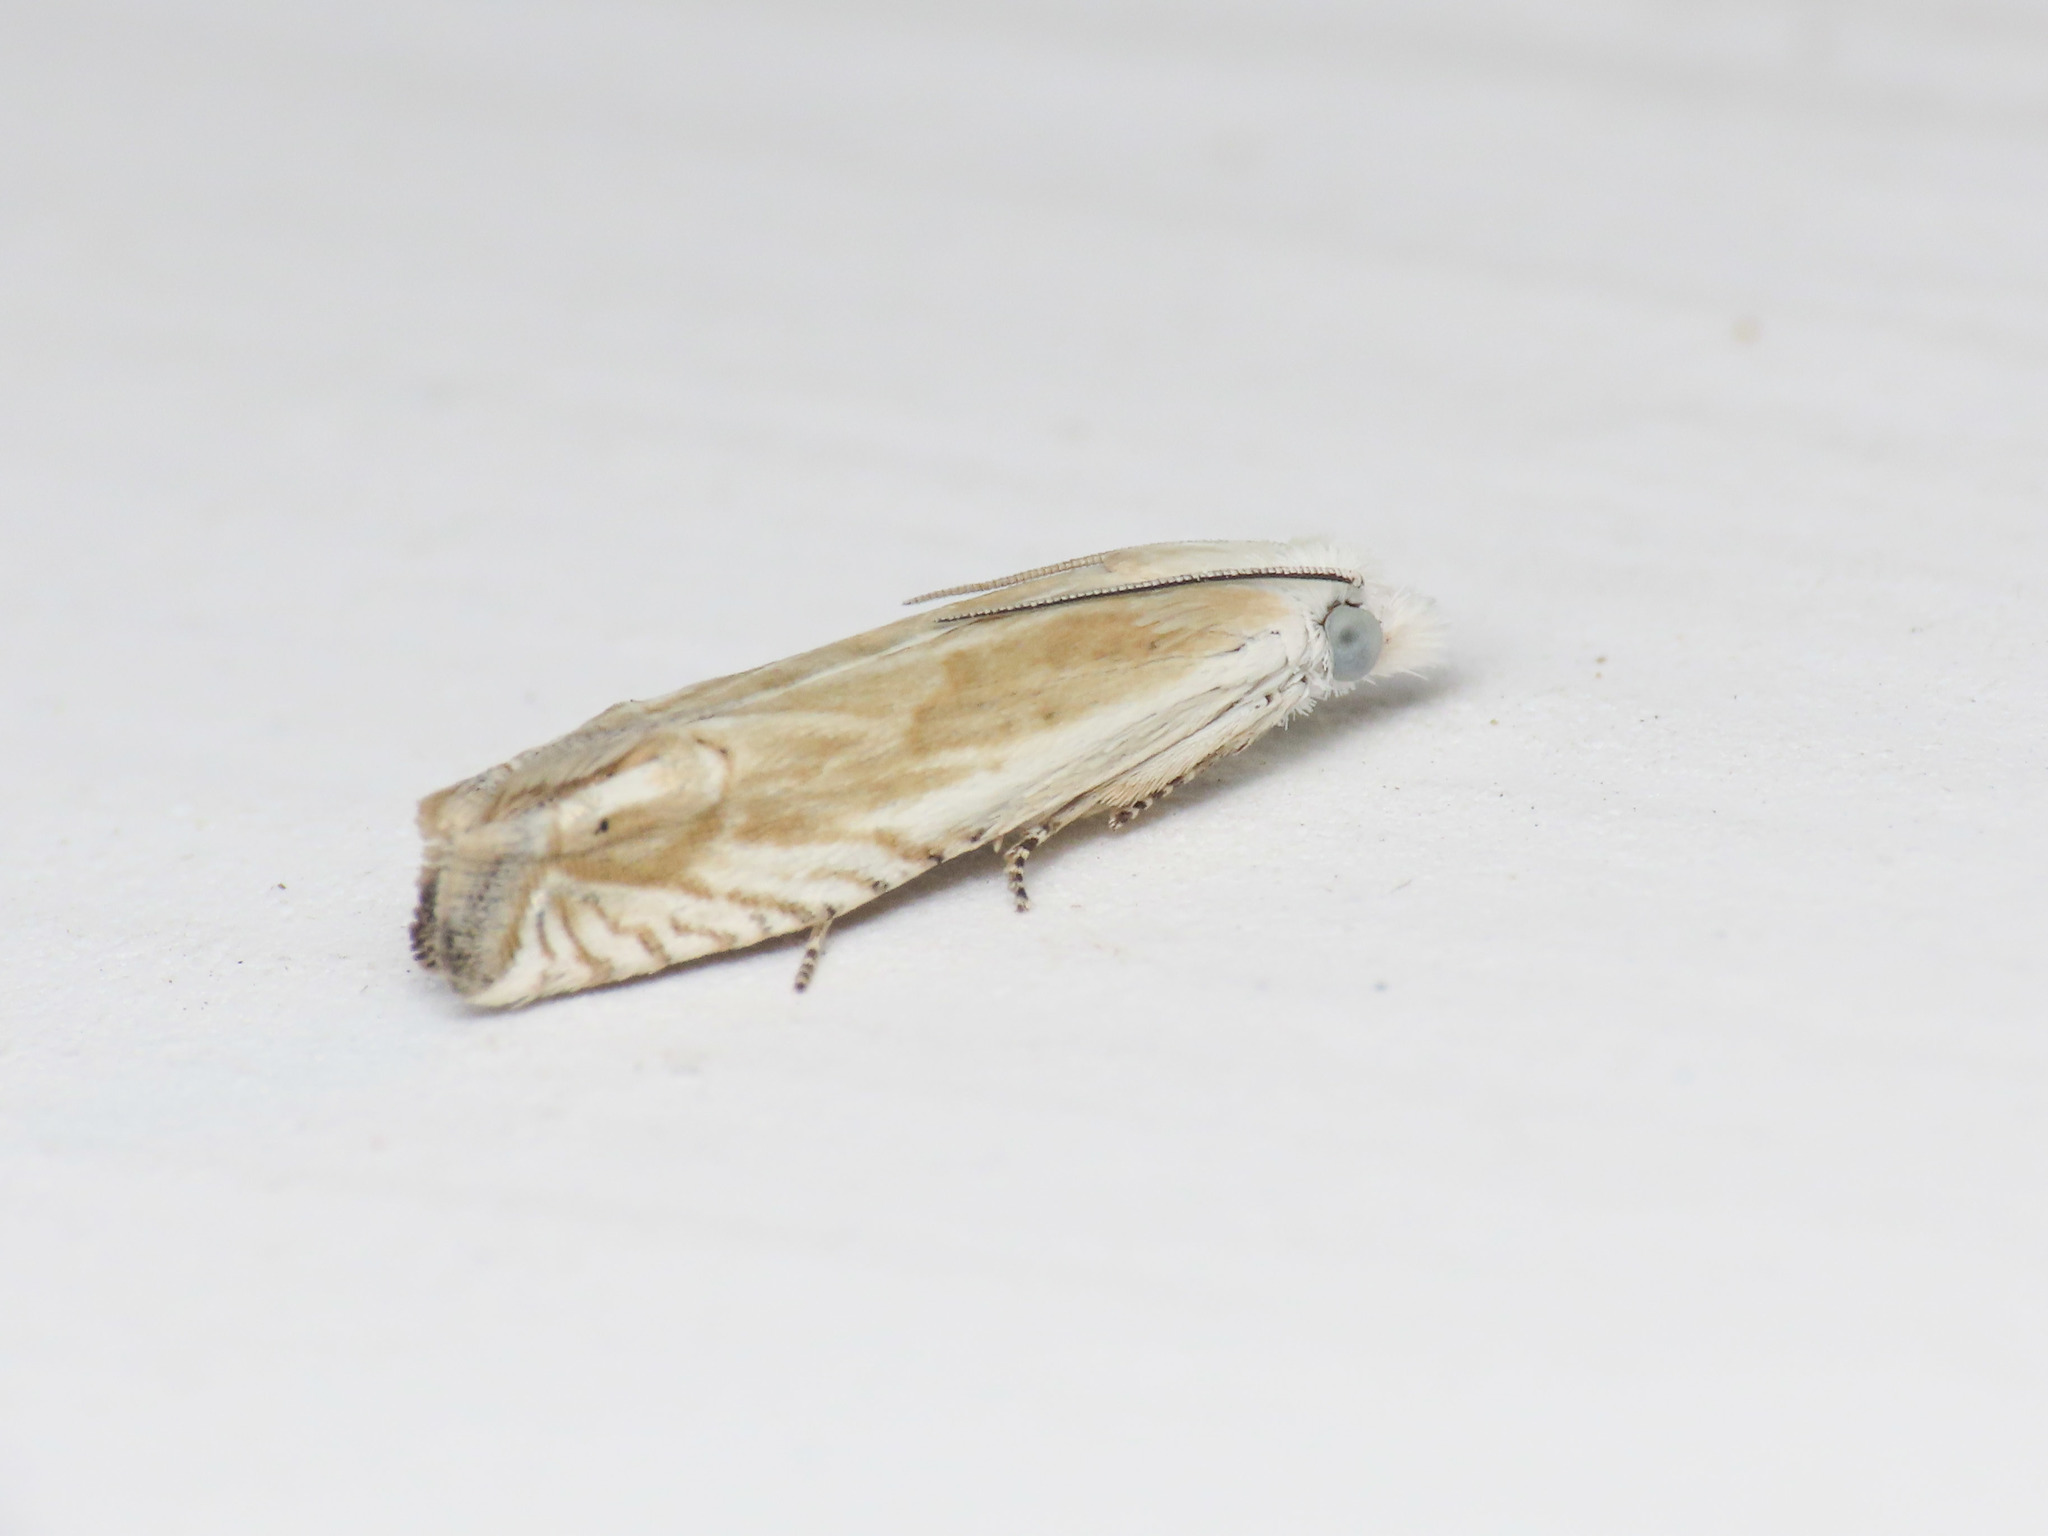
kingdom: Animalia
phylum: Arthropoda
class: Insecta
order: Lepidoptera
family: Tortricidae
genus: Eucosma
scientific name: Eucosma albidulana
